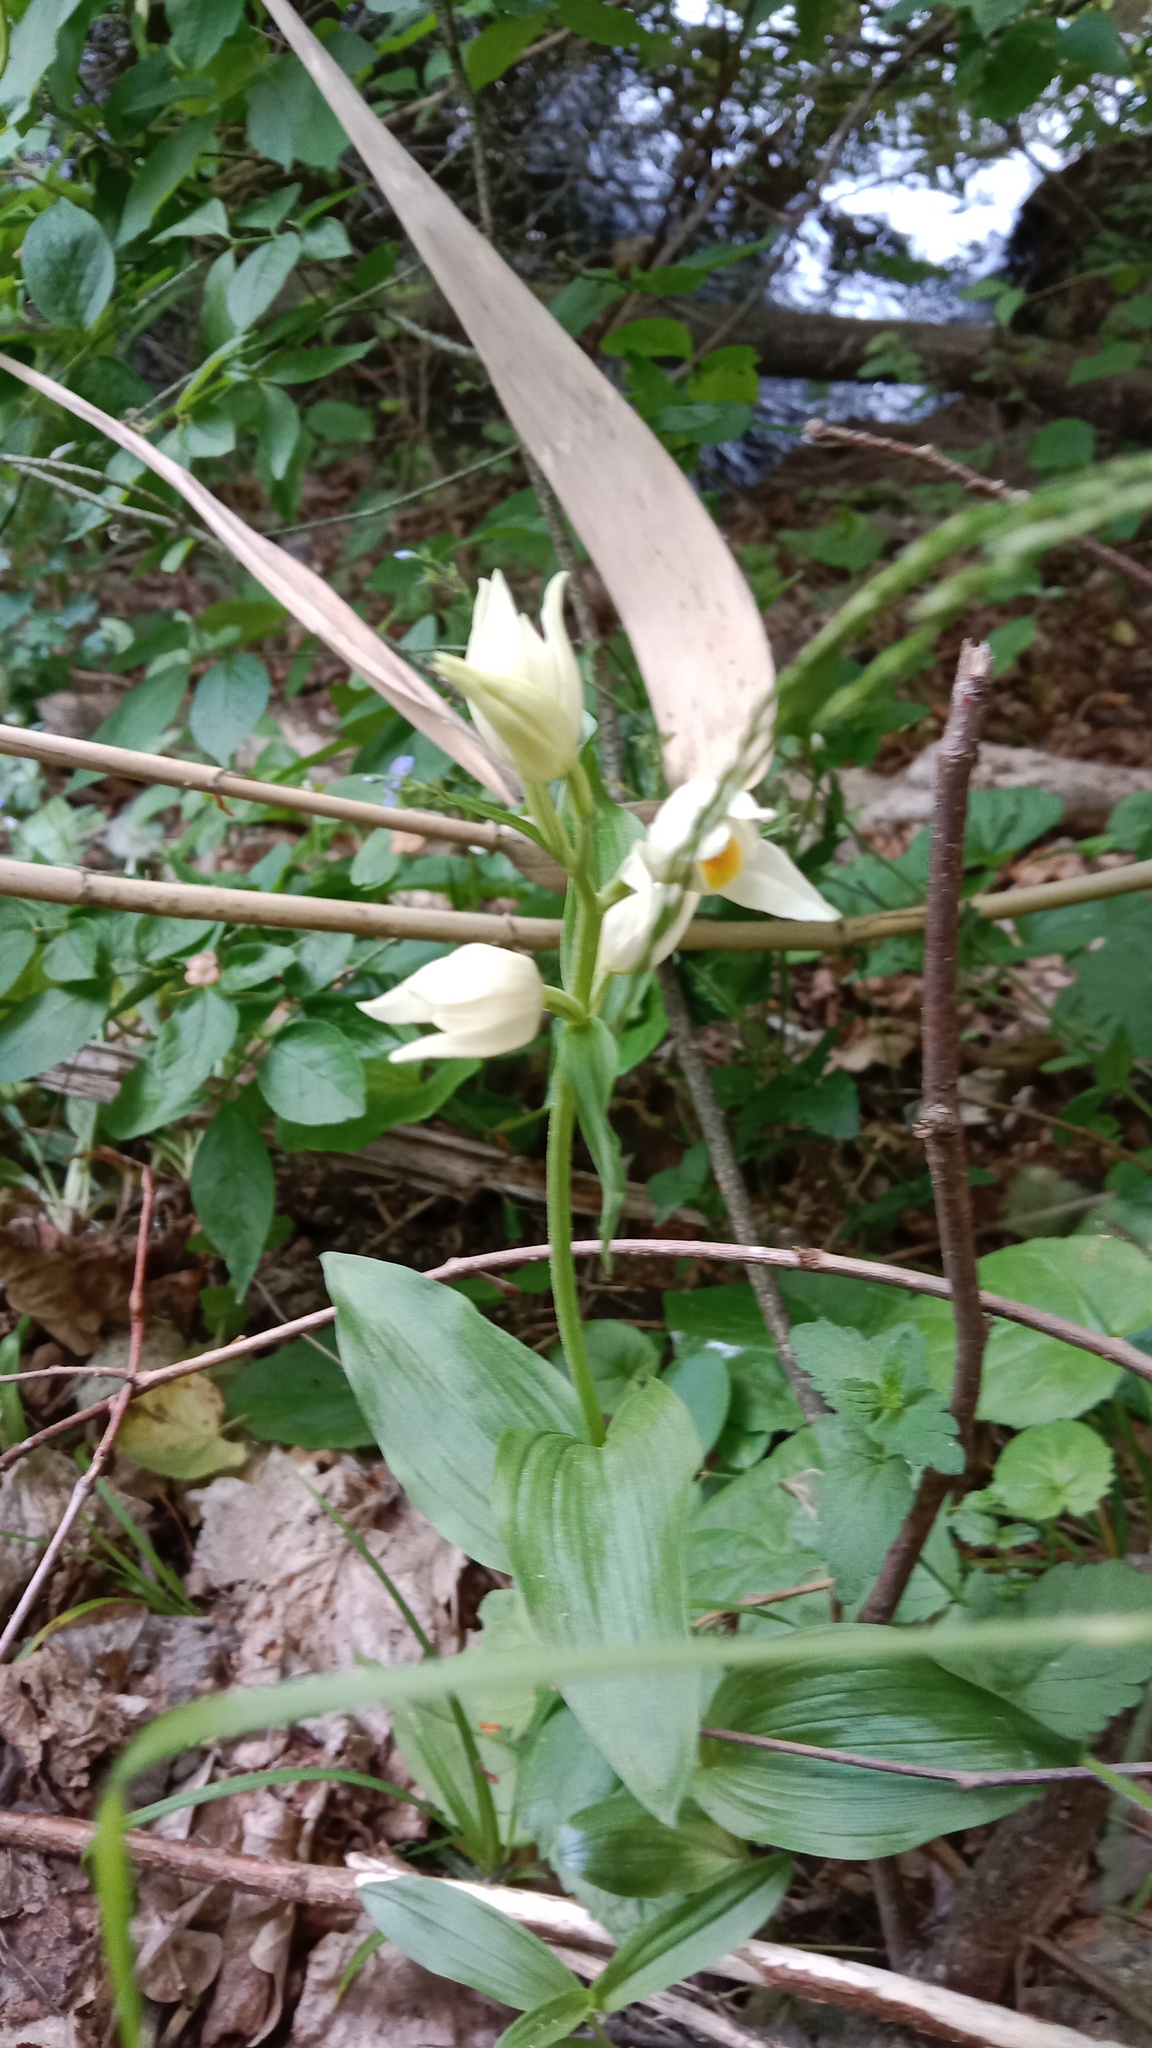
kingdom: Plantae
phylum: Tracheophyta
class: Liliopsida
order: Asparagales
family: Orchidaceae
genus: Cephalanthera
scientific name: Cephalanthera damasonium
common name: White helleborine
